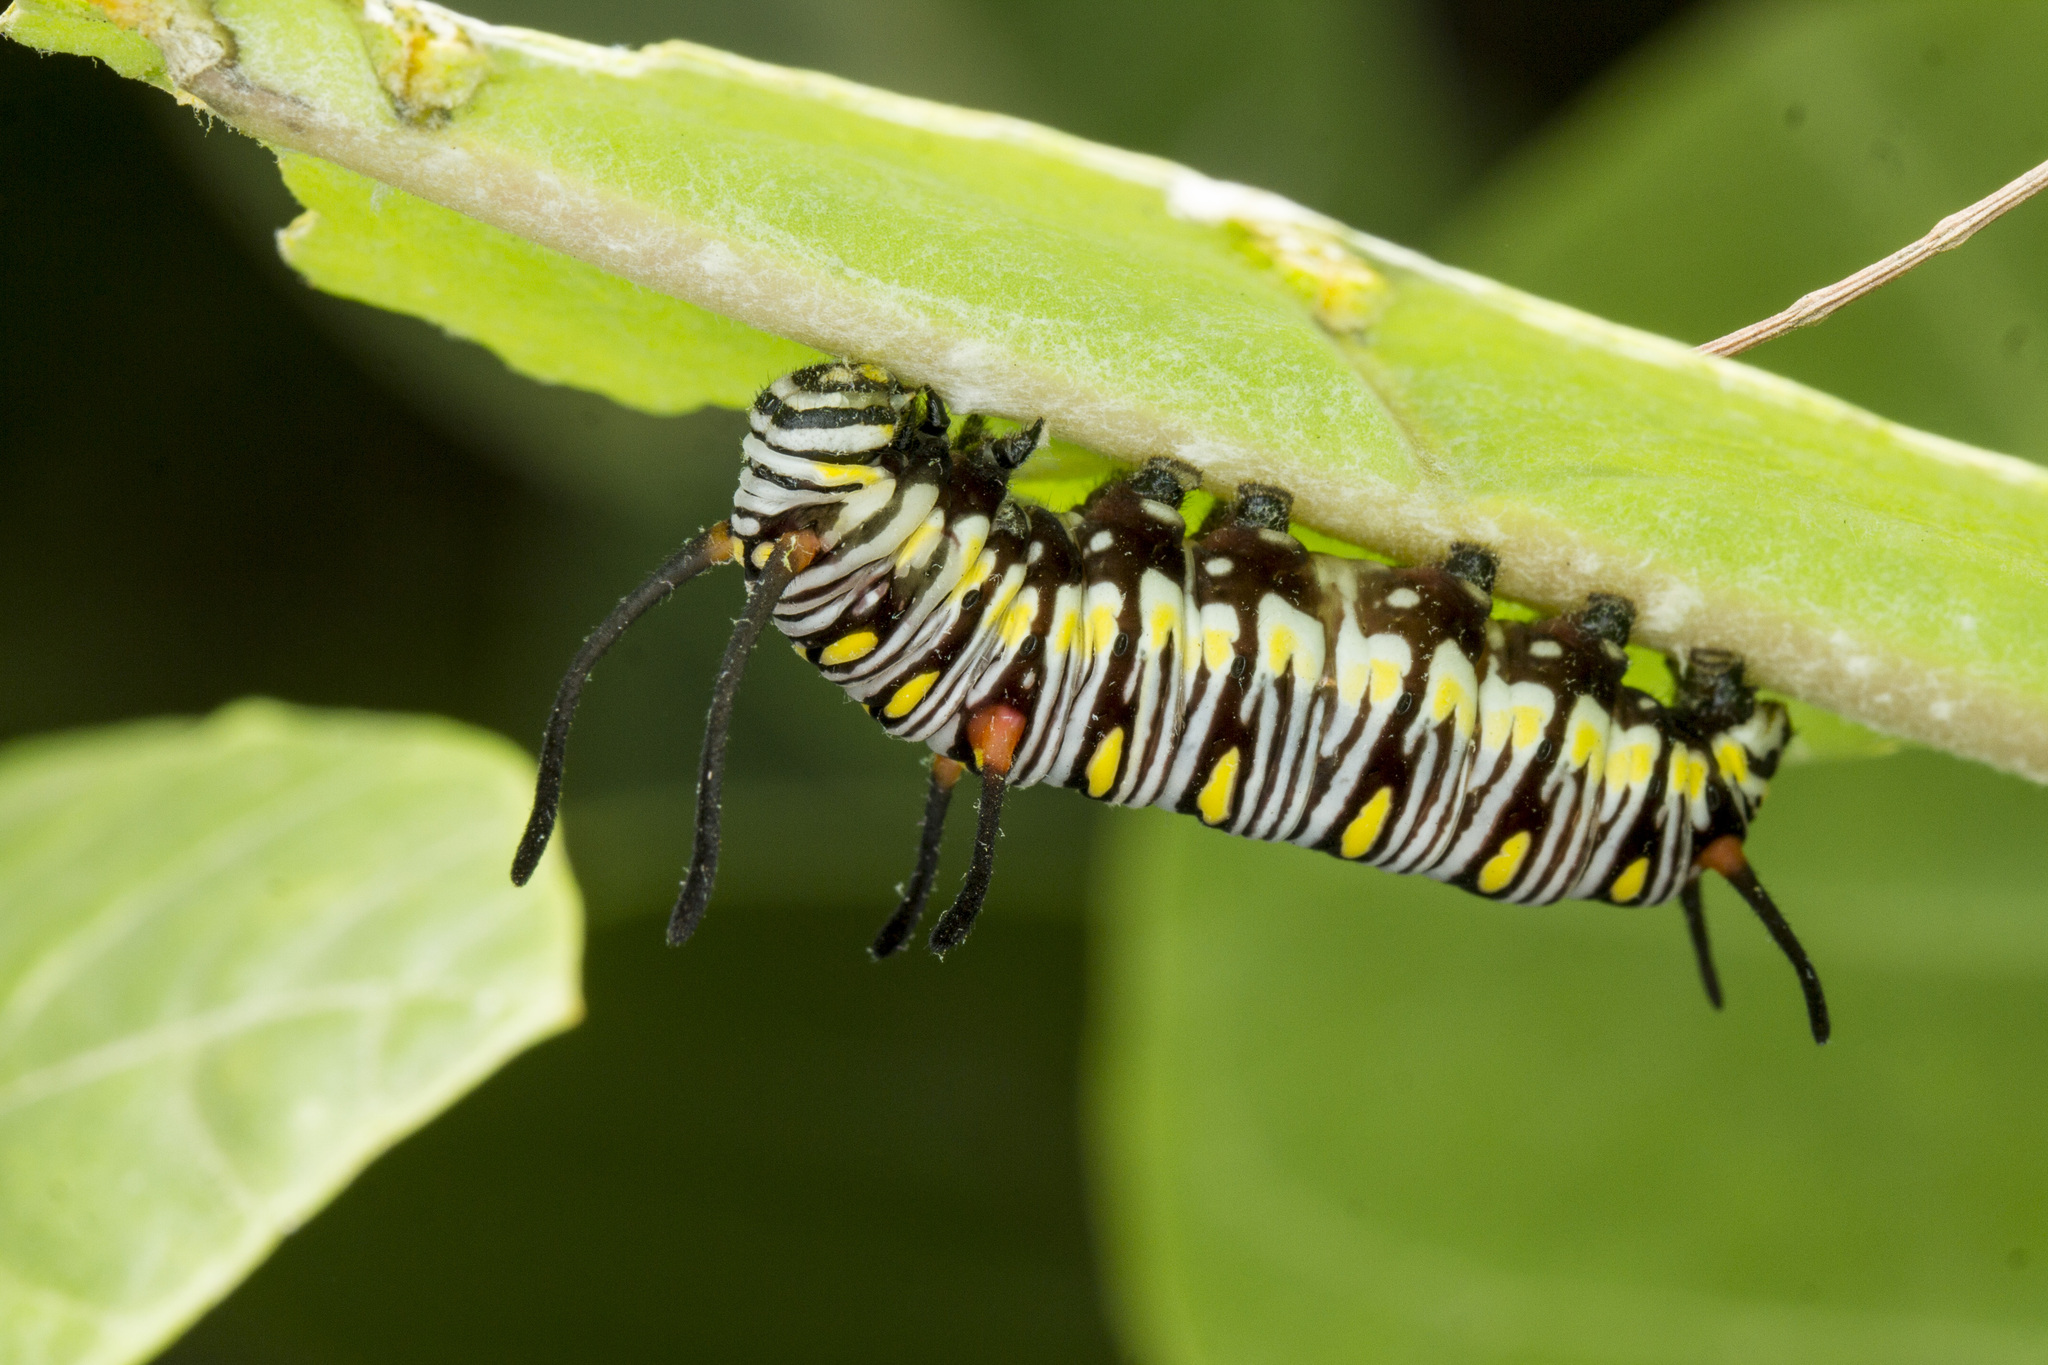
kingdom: Animalia
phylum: Arthropoda
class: Insecta
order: Lepidoptera
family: Nymphalidae
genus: Danaus
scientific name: Danaus chrysippus
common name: Plain tiger
